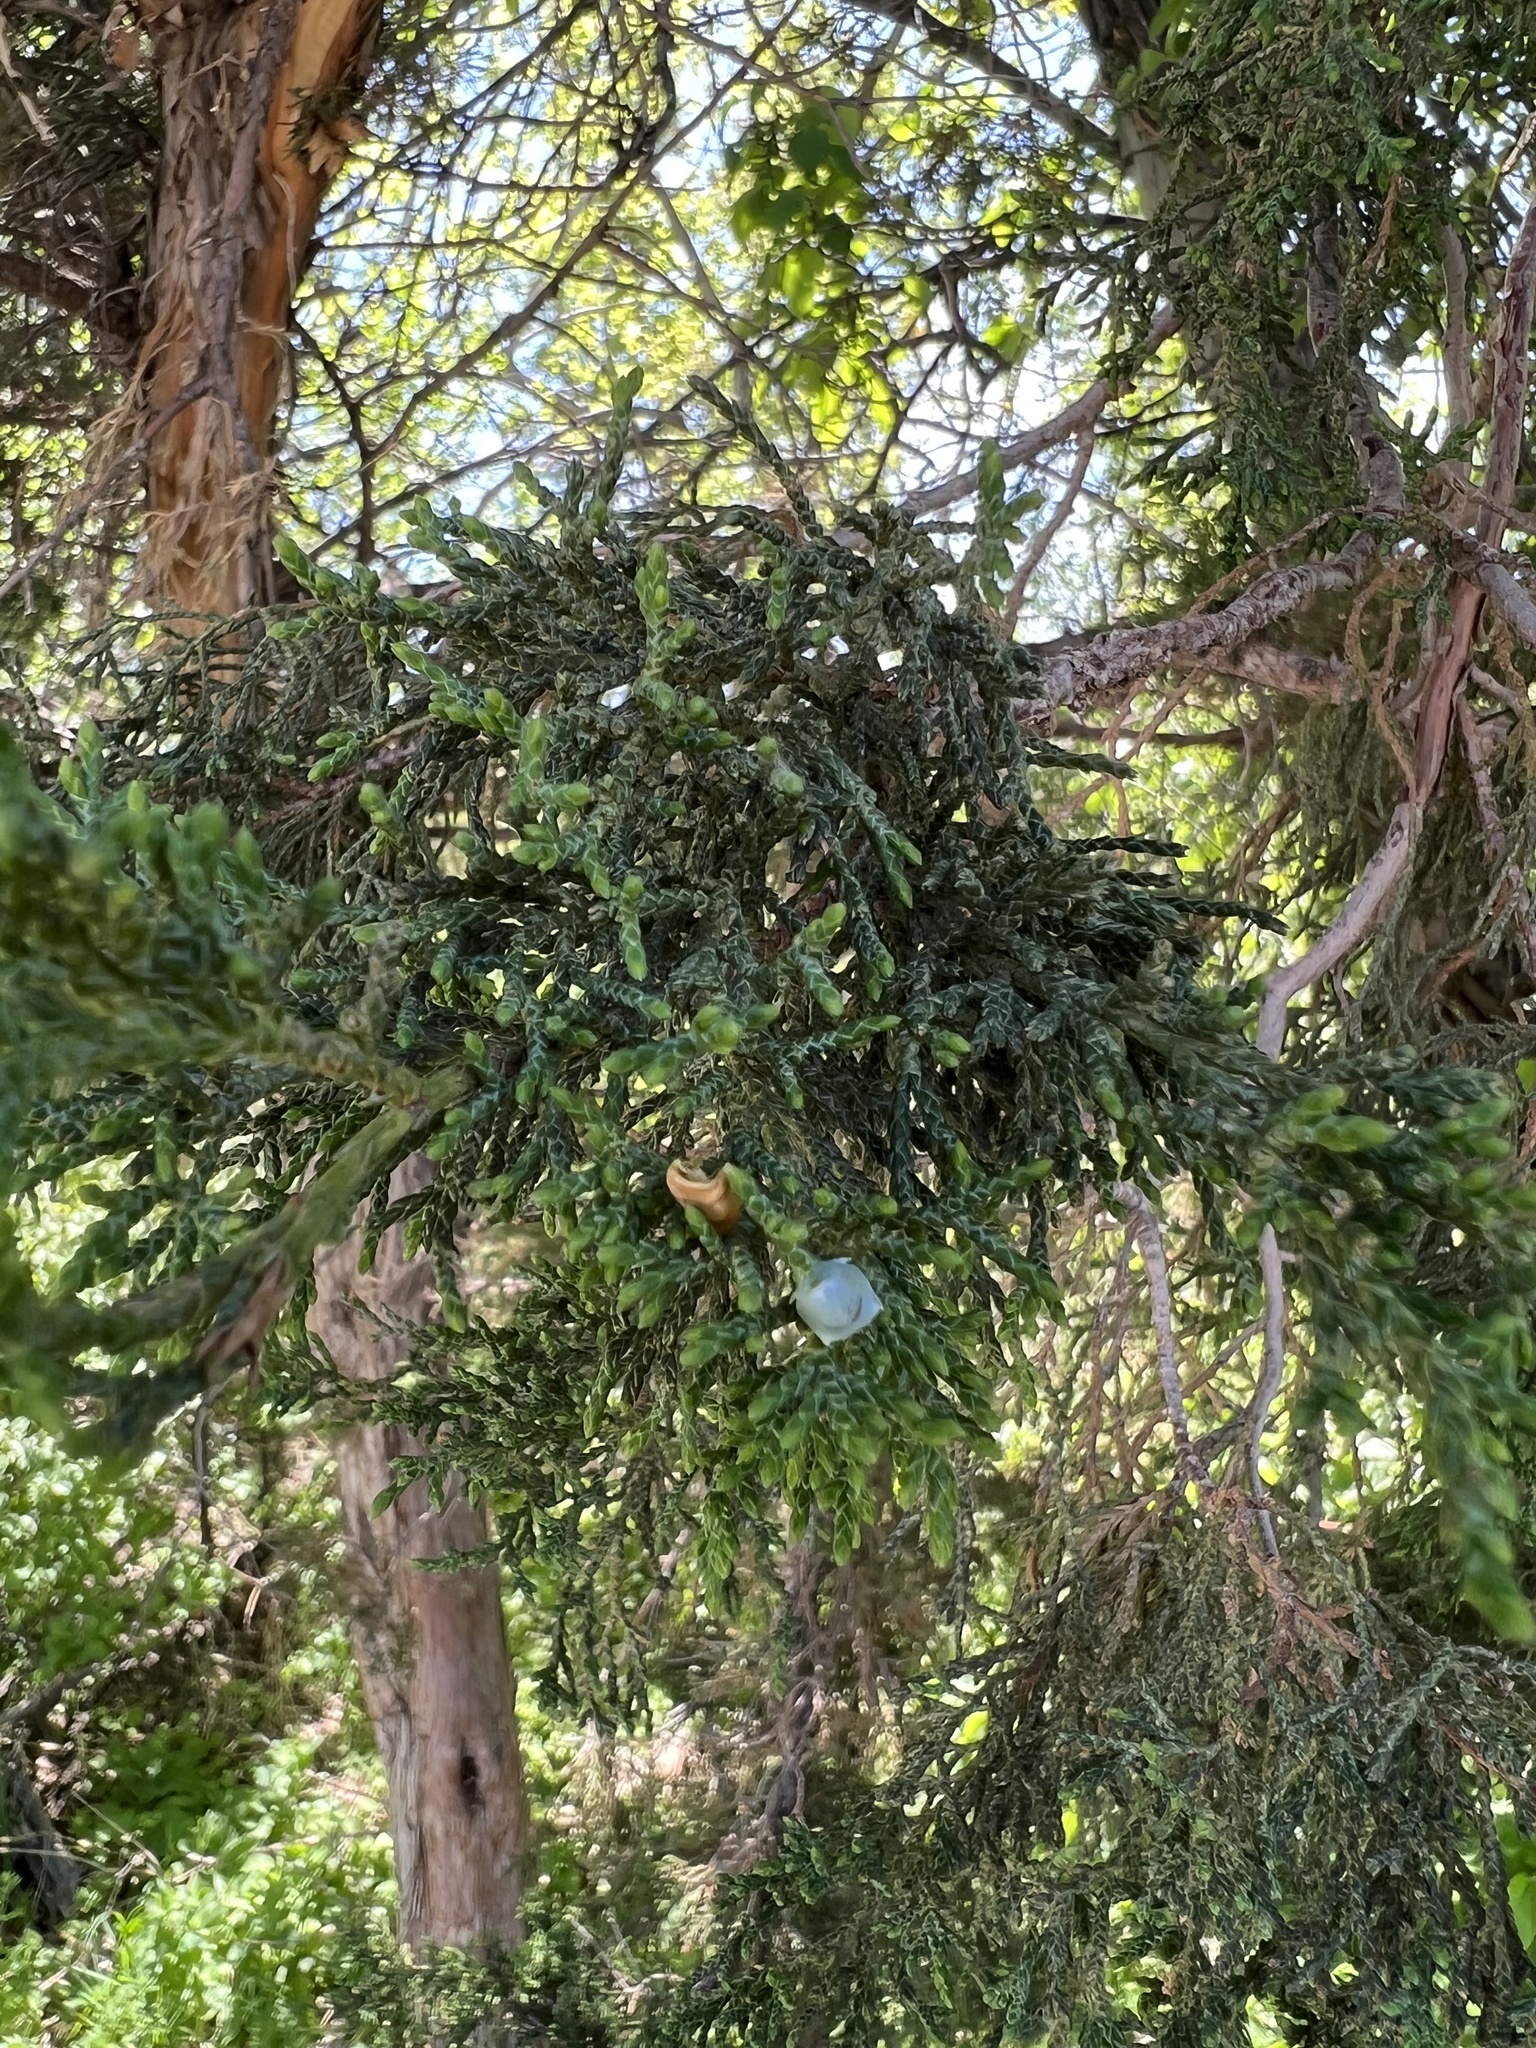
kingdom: Plantae
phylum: Tracheophyta
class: Pinopsida
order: Pinales
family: Cupressaceae
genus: Juniperus
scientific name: Juniperus scopulorum
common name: Rocky mountain juniper
